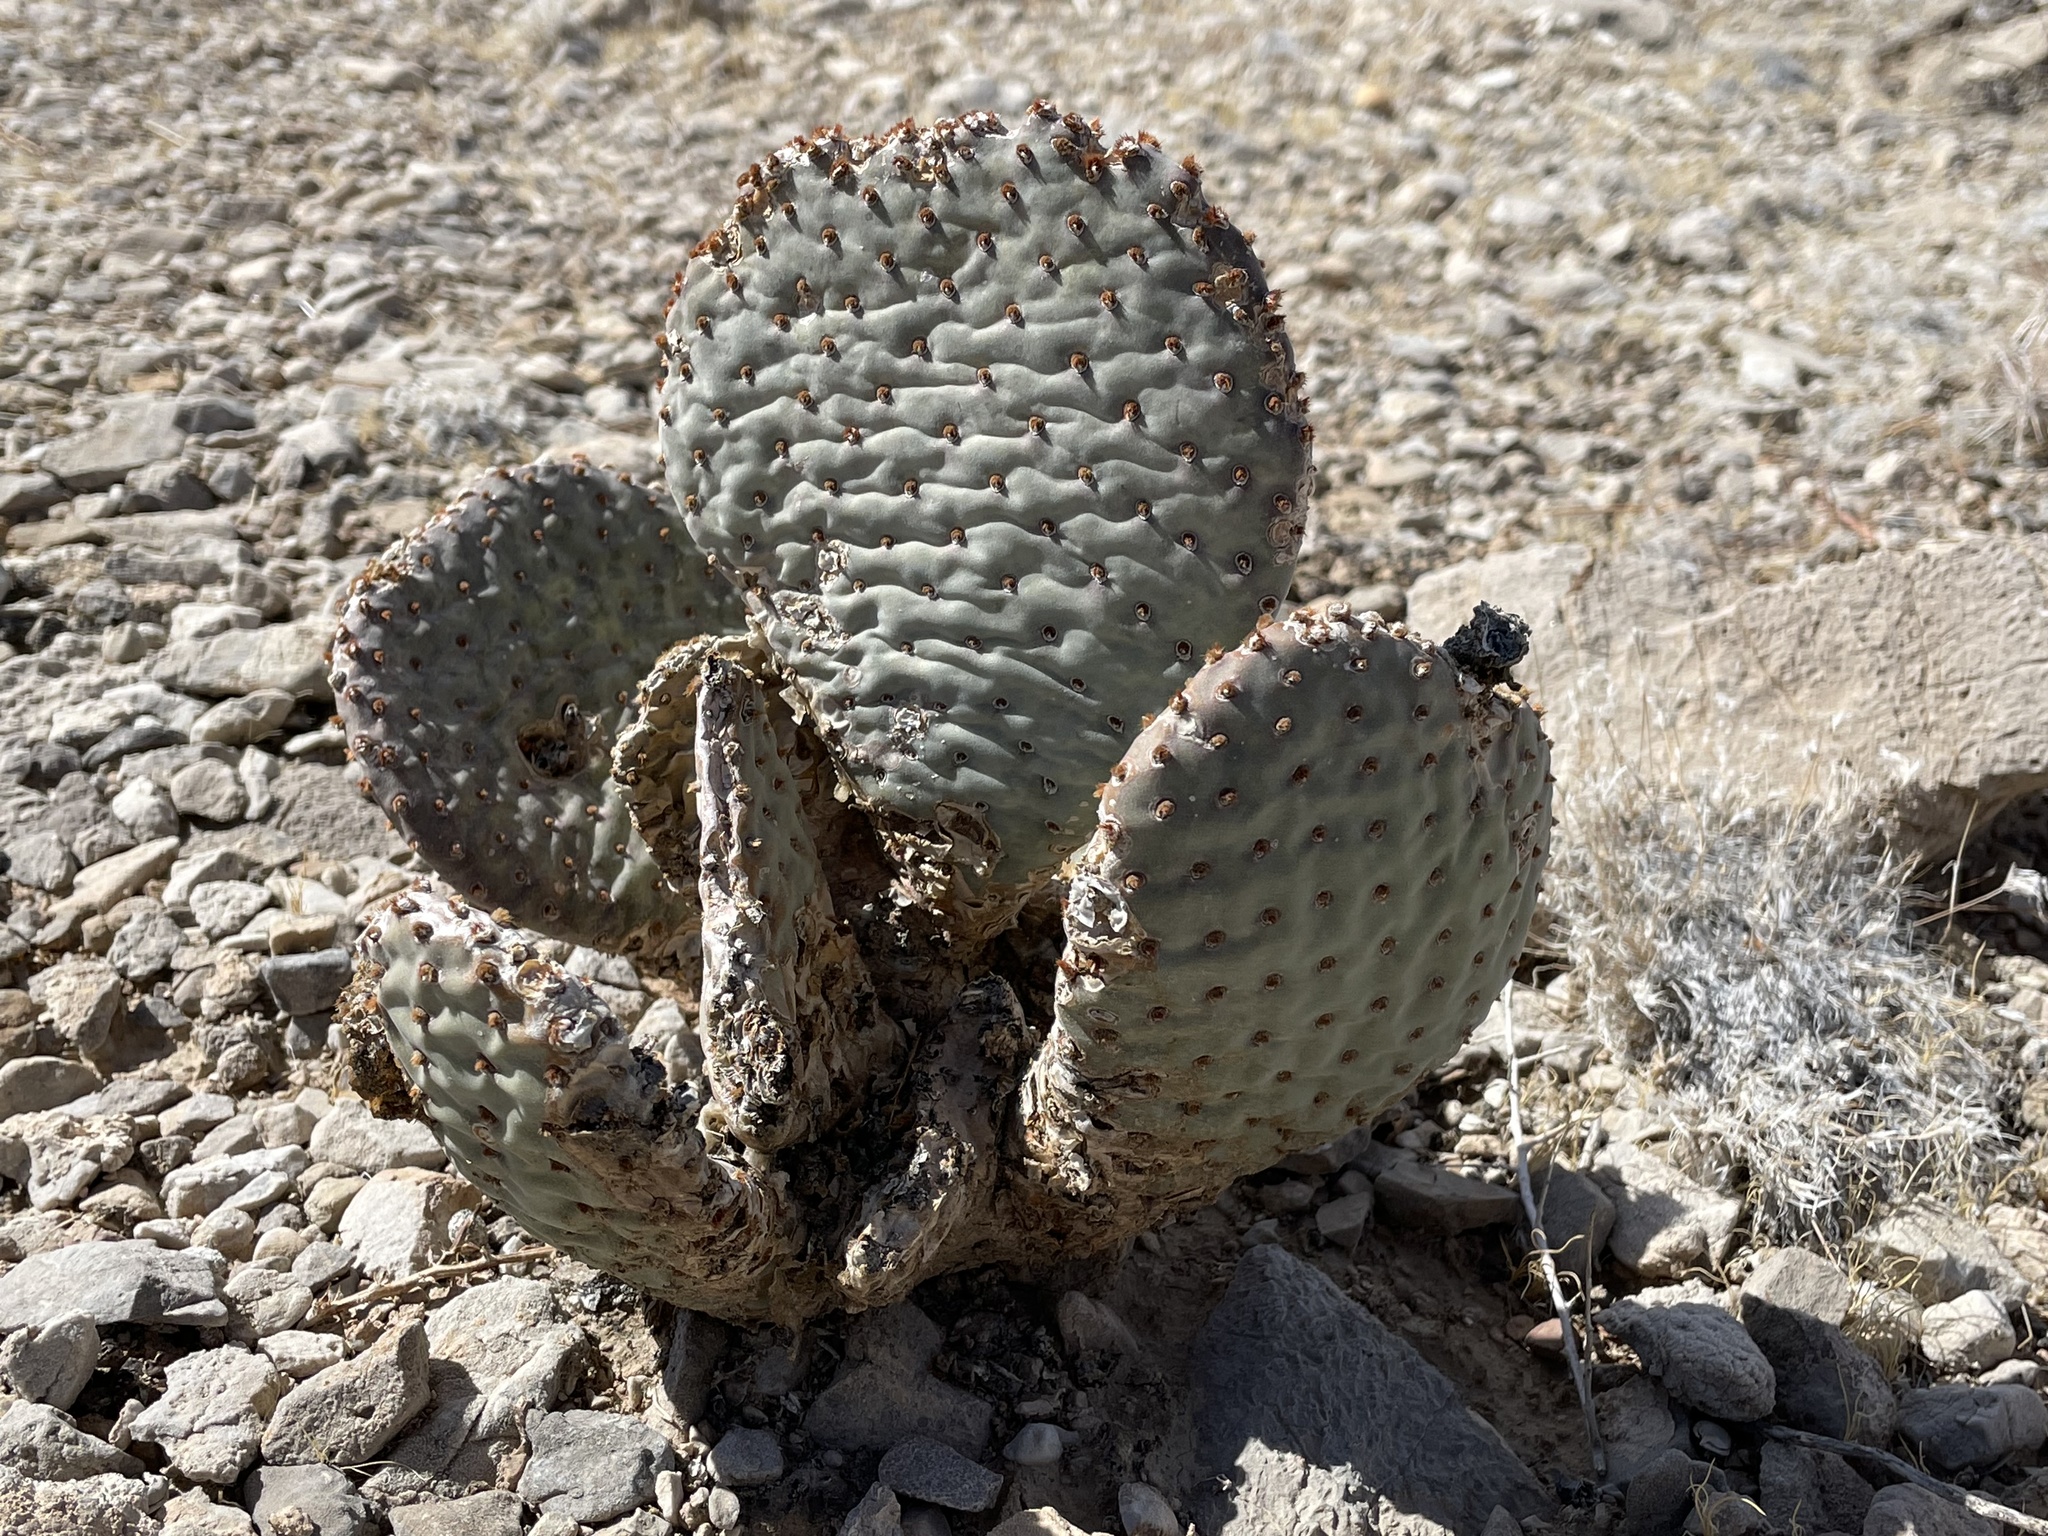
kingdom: Plantae
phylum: Tracheophyta
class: Magnoliopsida
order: Caryophyllales
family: Cactaceae
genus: Opuntia
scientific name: Opuntia basilaris
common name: Beavertail prickly-pear
